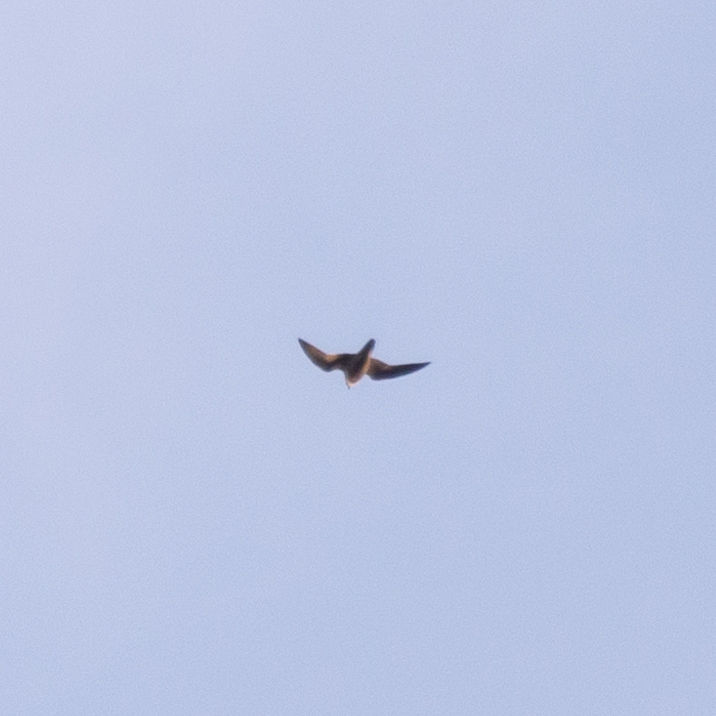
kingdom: Animalia
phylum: Chordata
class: Aves
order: Falconiformes
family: Falconidae
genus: Falco
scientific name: Falco peregrinus
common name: Peregrine falcon
